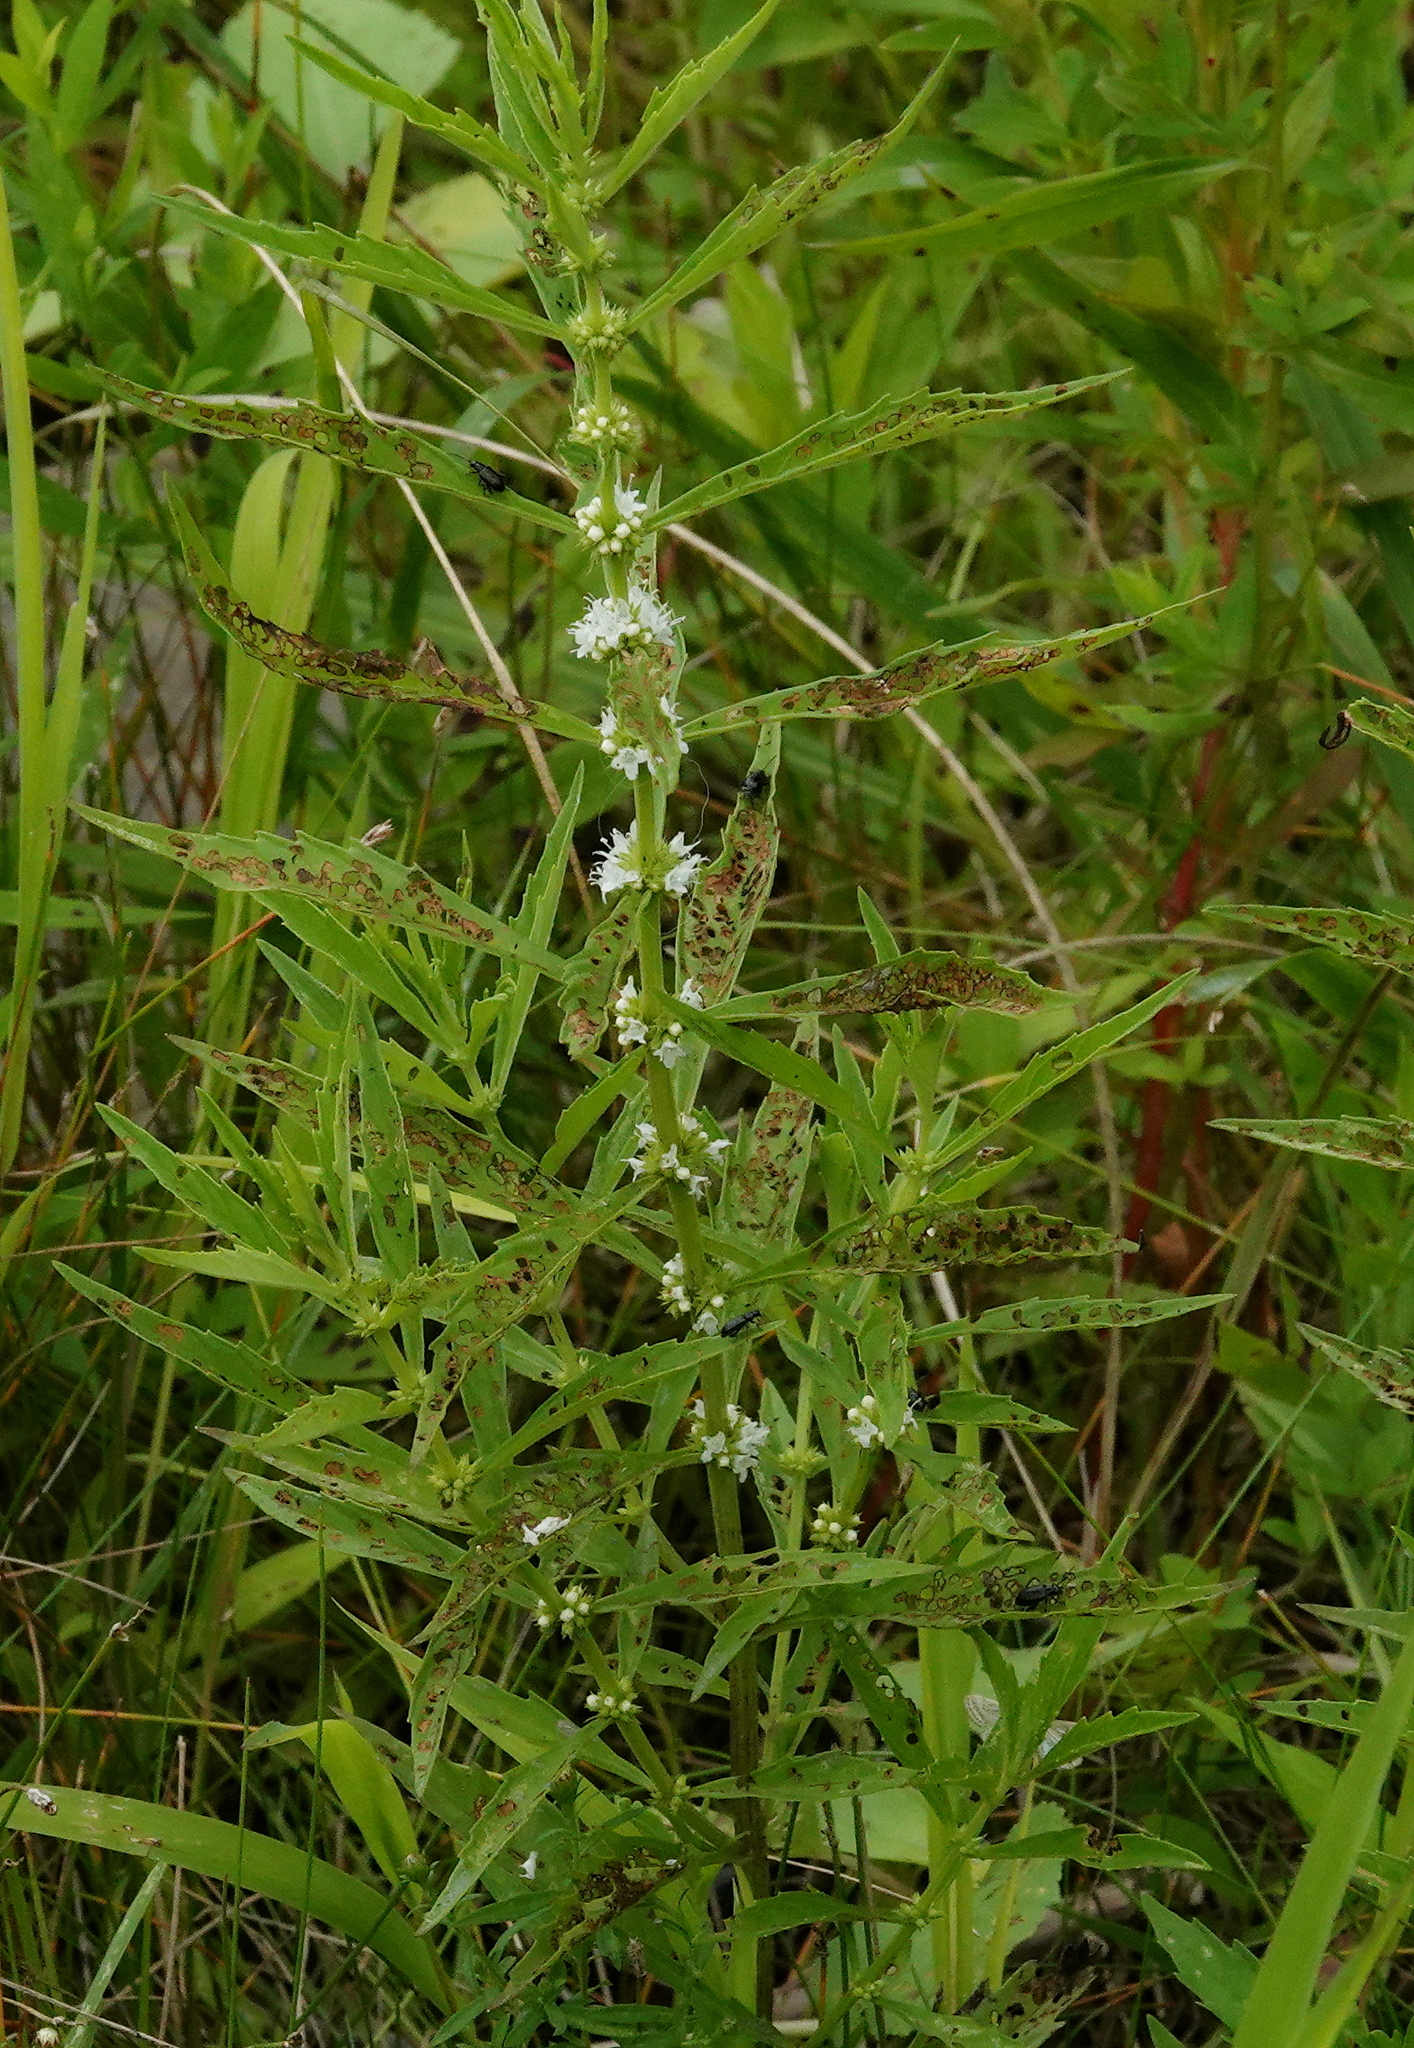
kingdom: Plantae
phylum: Tracheophyta
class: Magnoliopsida
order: Lamiales
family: Lamiaceae
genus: Lycopus
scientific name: Lycopus americanus
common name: American bugleweed
